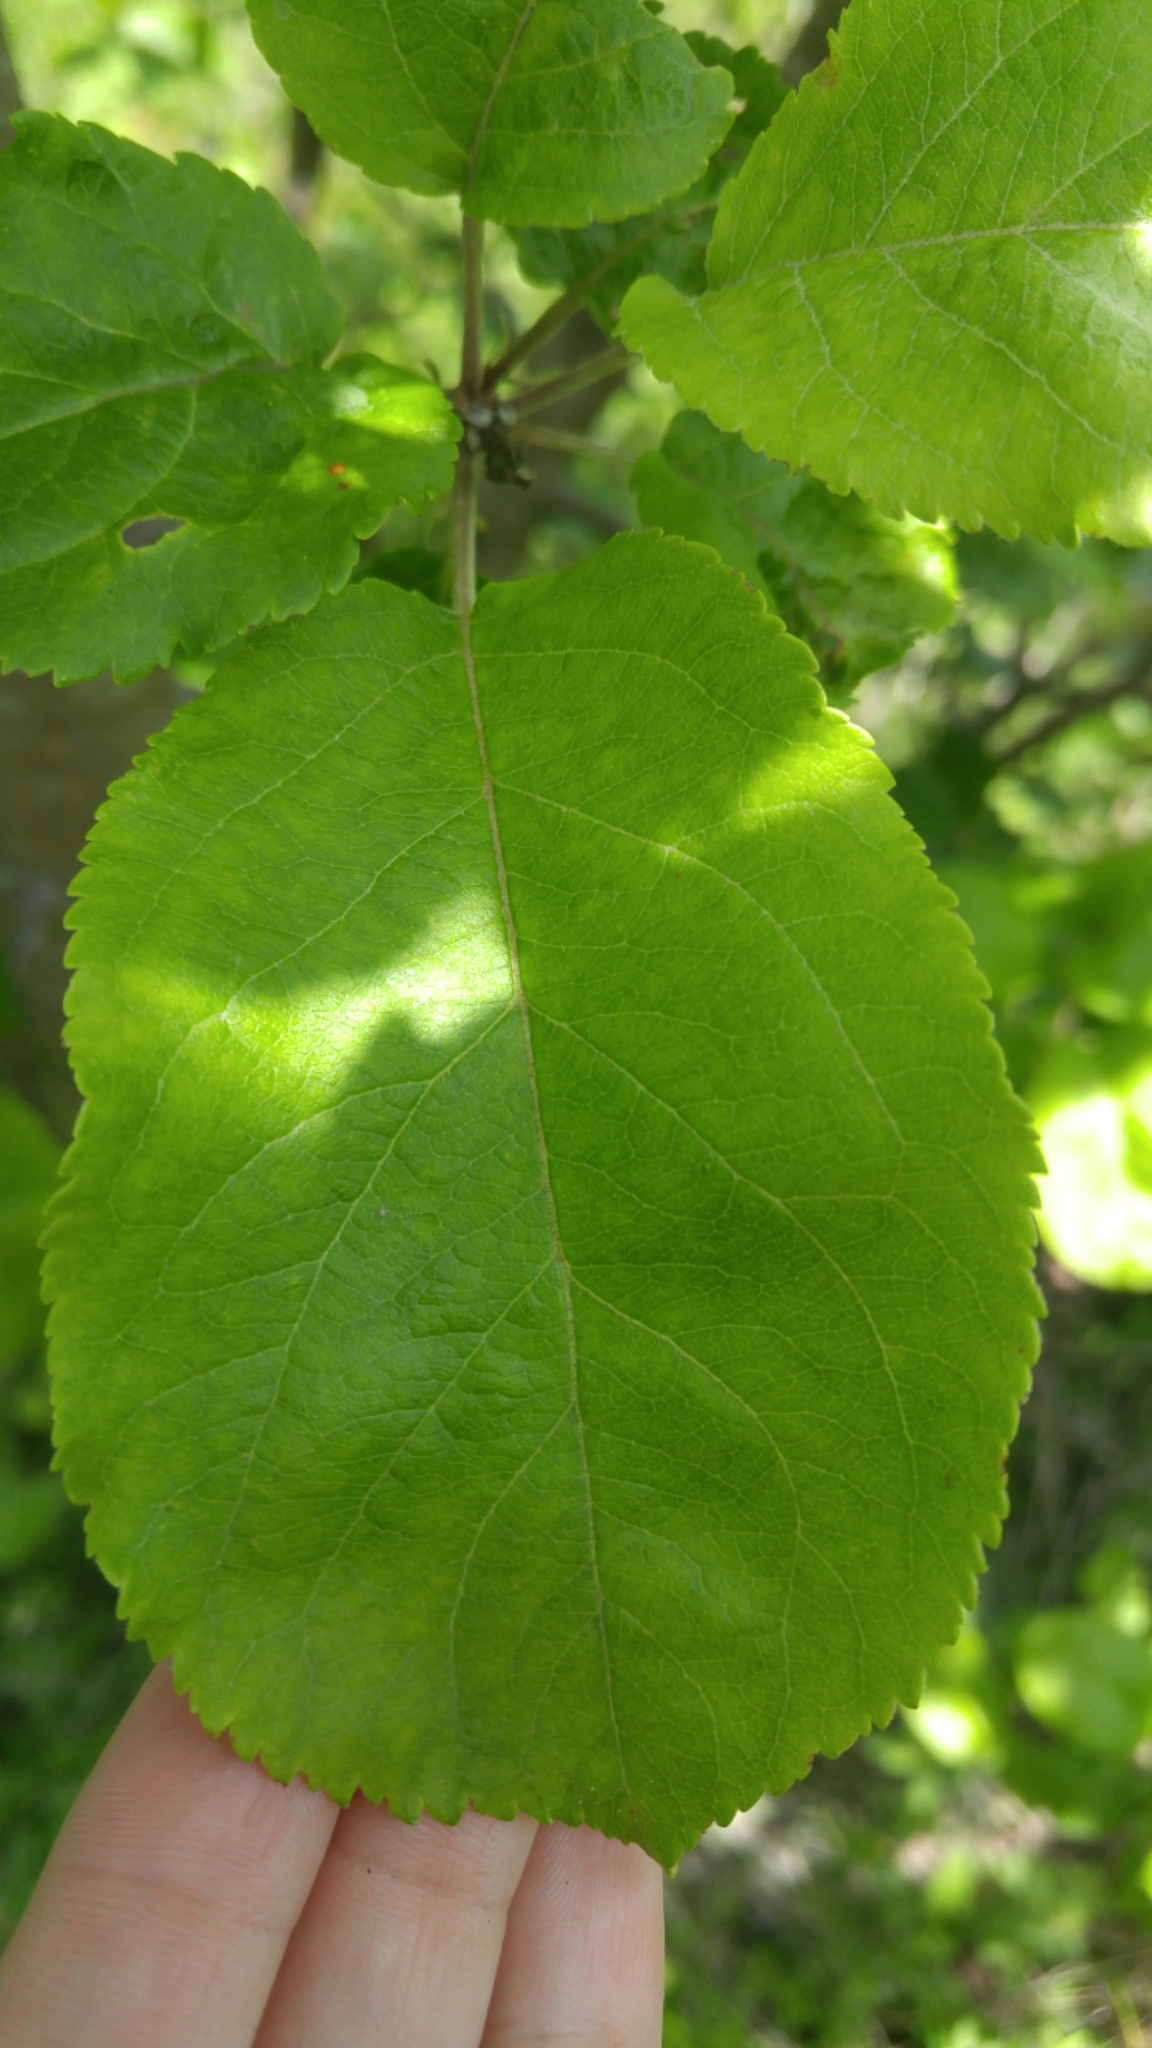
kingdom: Plantae
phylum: Tracheophyta
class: Magnoliopsida
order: Rosales
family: Rosaceae
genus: Malus
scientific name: Malus domestica
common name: Apple
